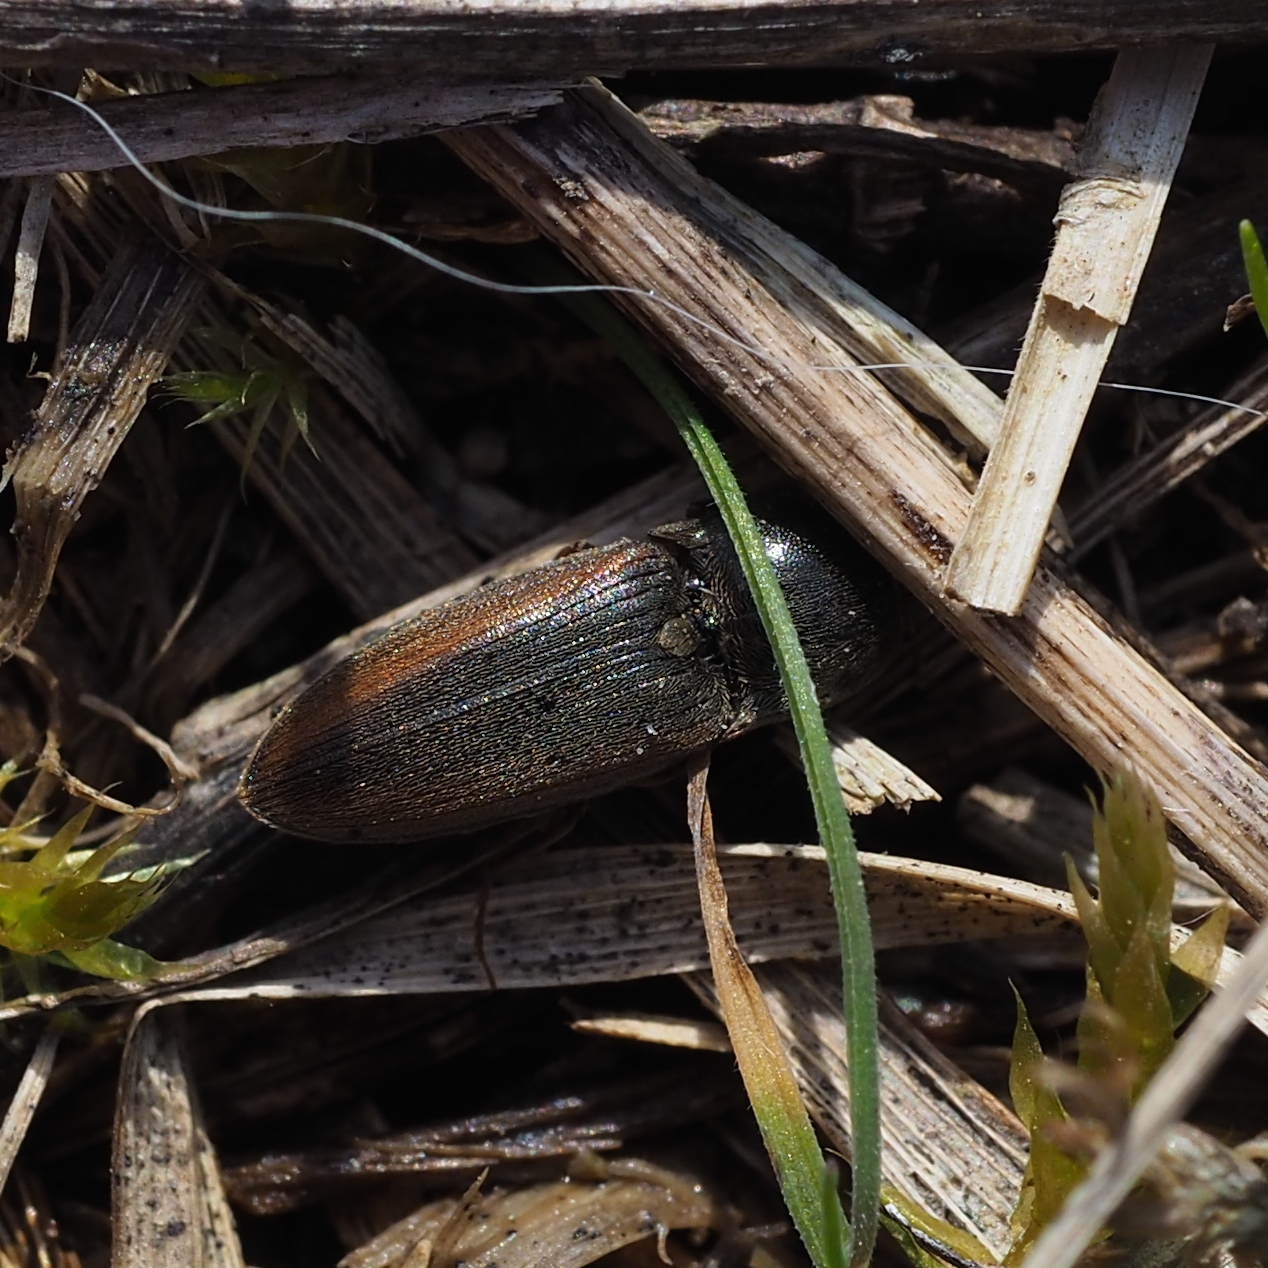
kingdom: Animalia
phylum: Arthropoda
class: Insecta
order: Coleoptera
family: Elateridae
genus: Agriotes
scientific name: Agriotes brevis
